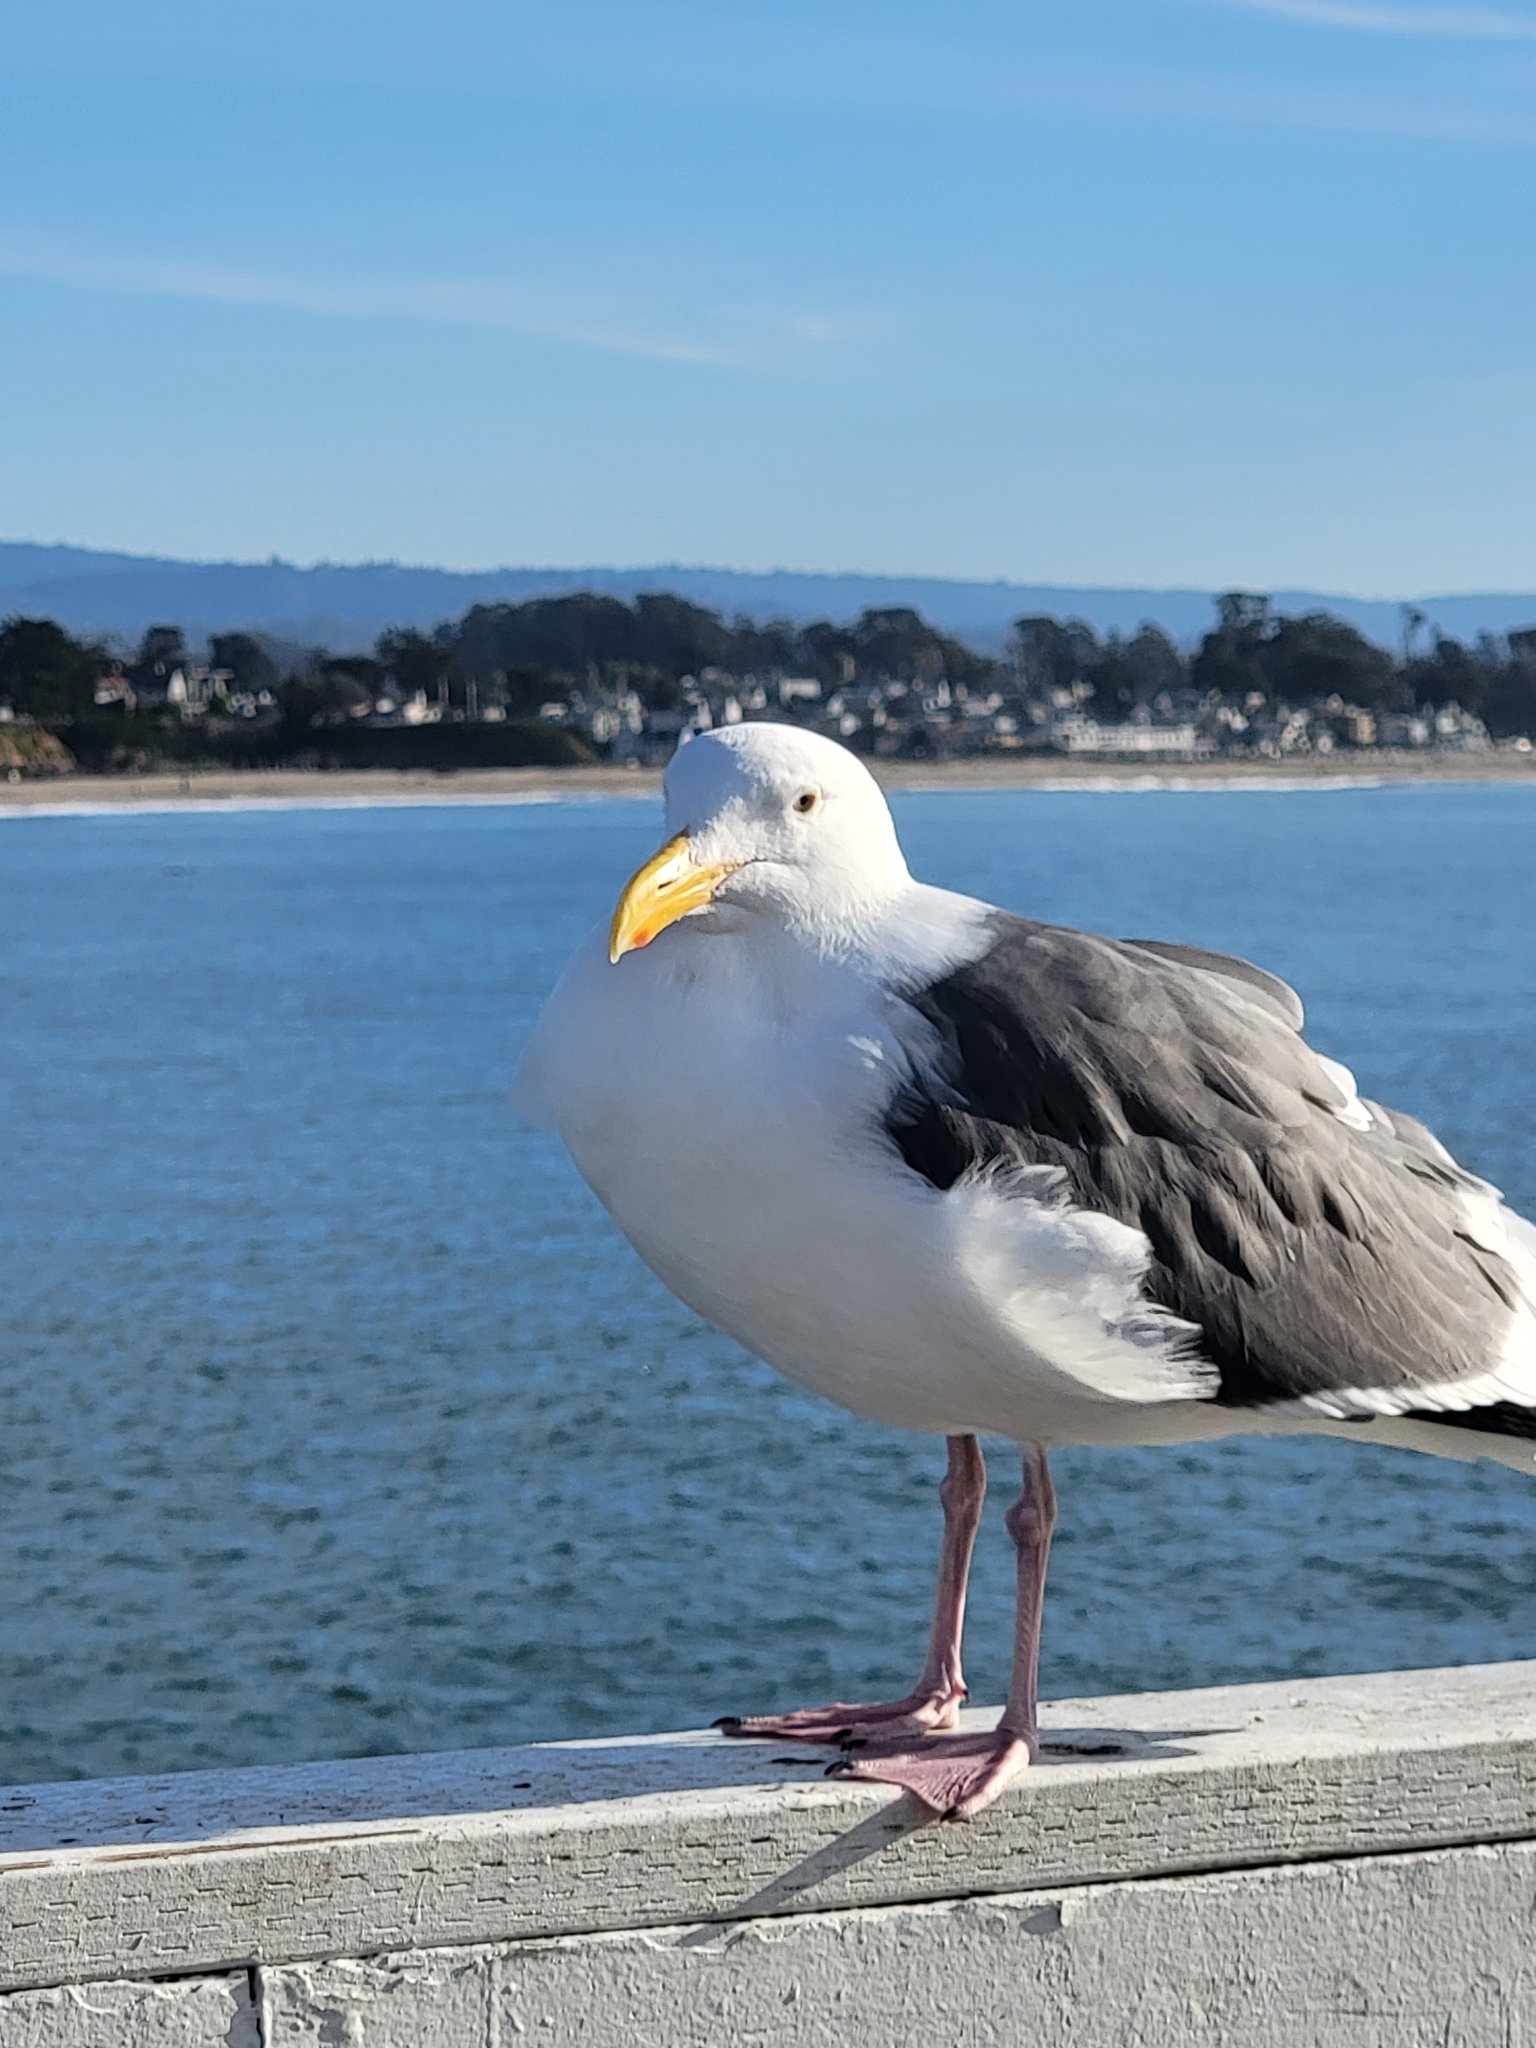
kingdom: Animalia
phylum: Chordata
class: Aves
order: Charadriiformes
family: Laridae
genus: Larus
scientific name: Larus occidentalis
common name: Western gull
